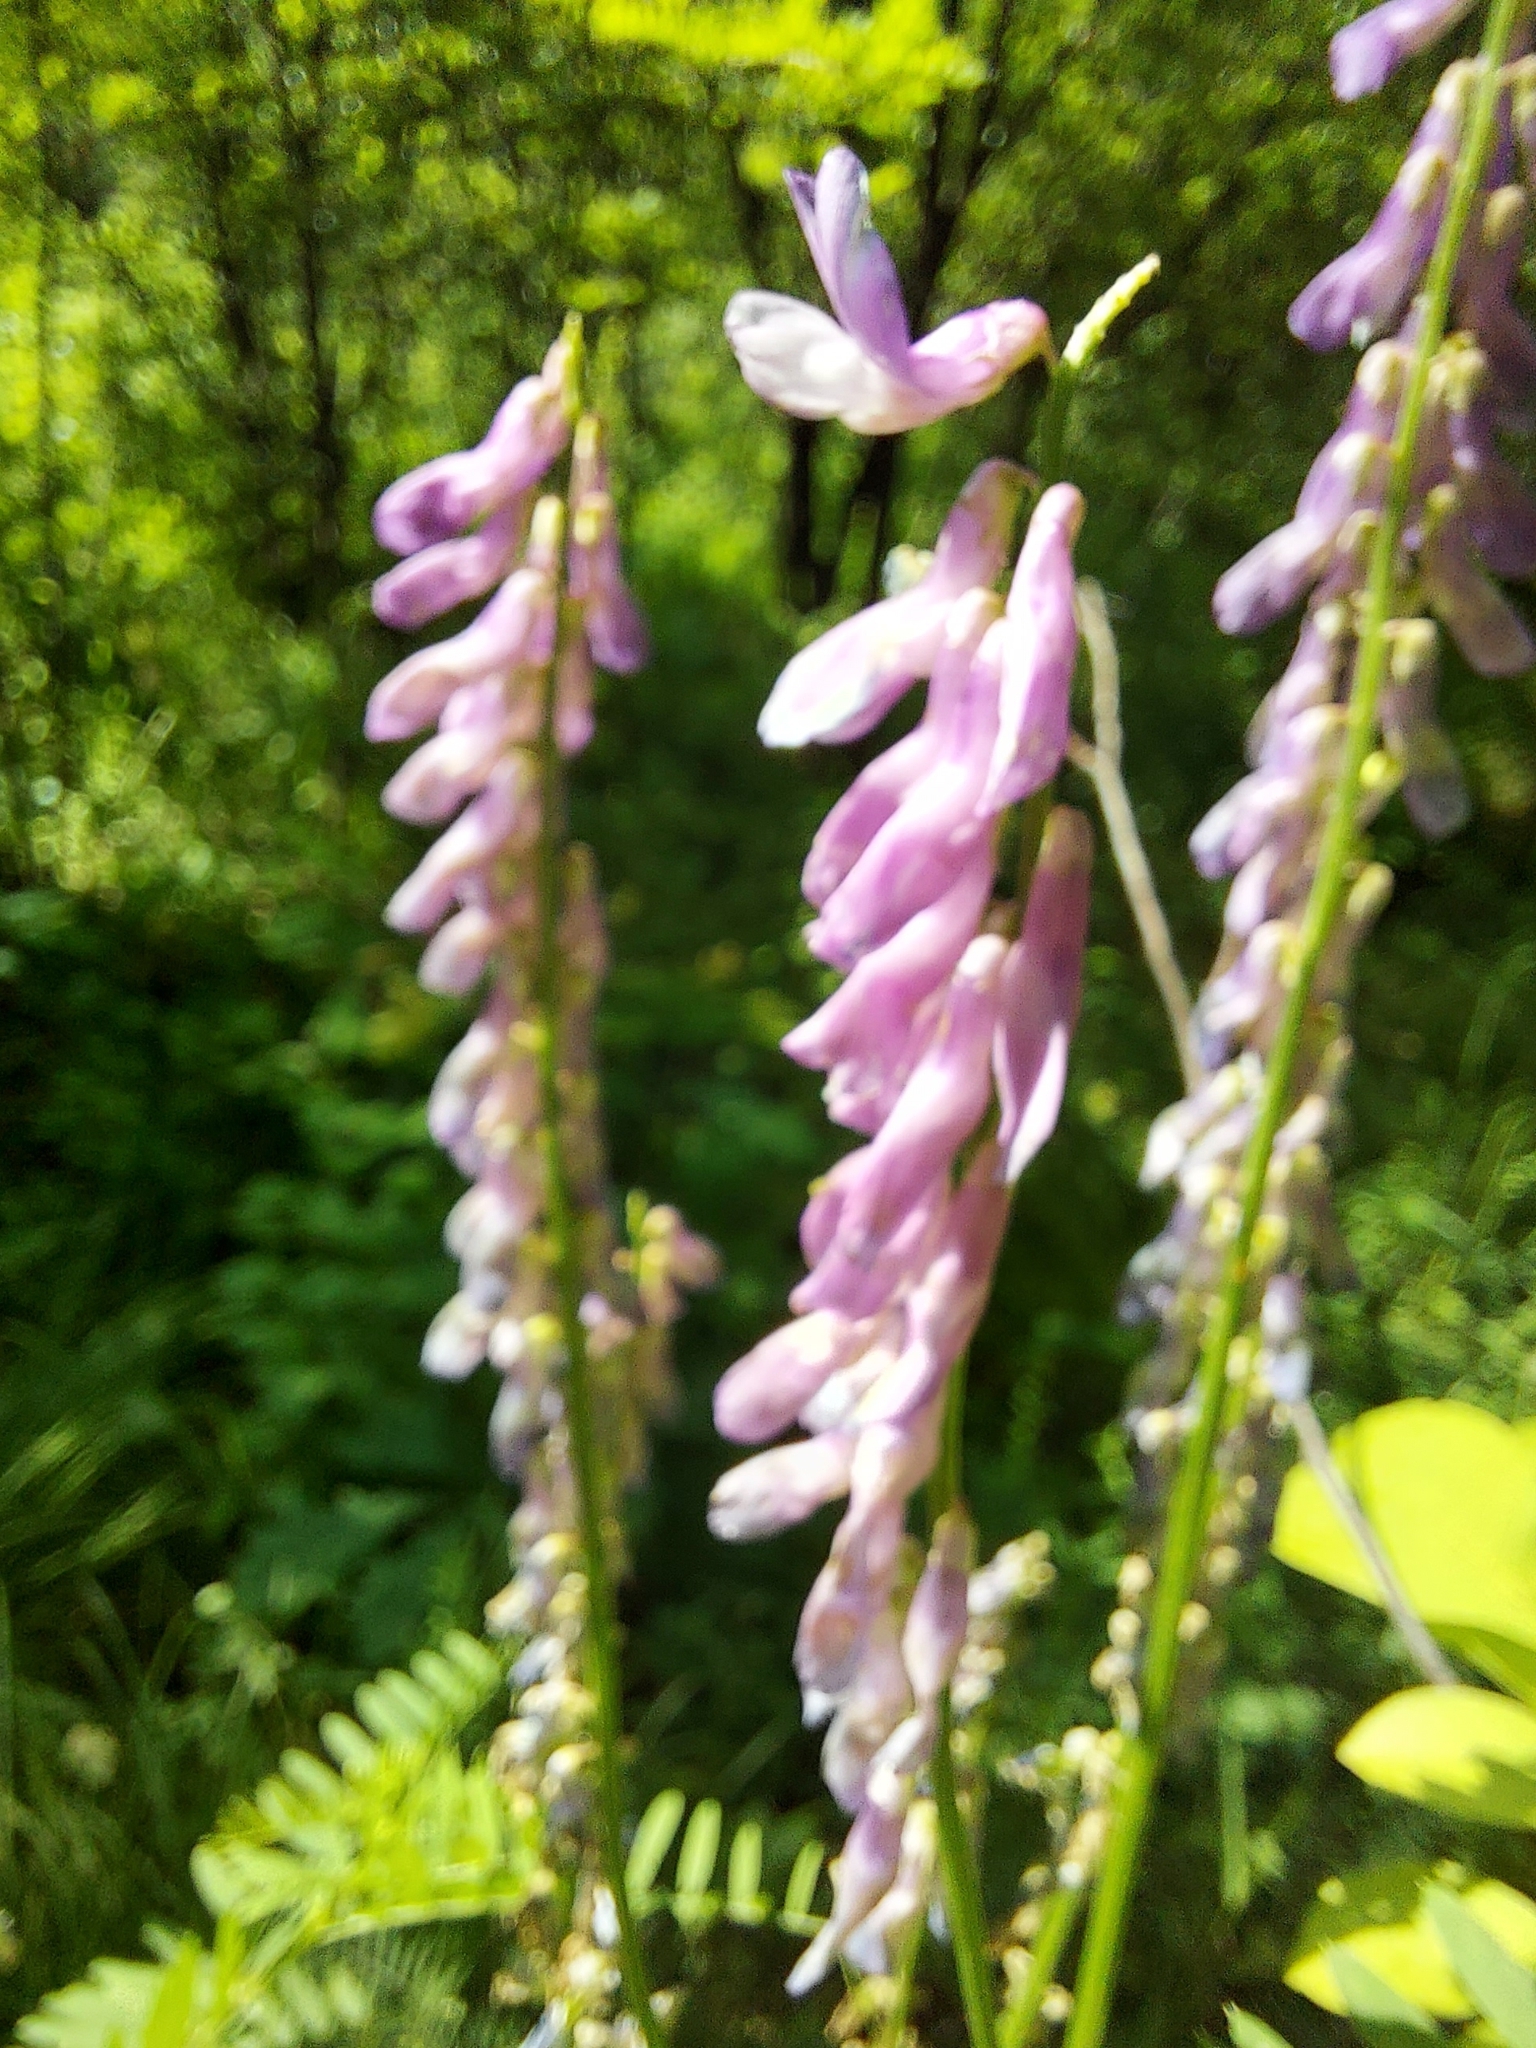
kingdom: Plantae
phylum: Tracheophyta
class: Magnoliopsida
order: Fabales
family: Fabaceae
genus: Vicia
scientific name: Vicia cracca
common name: Bird vetch
